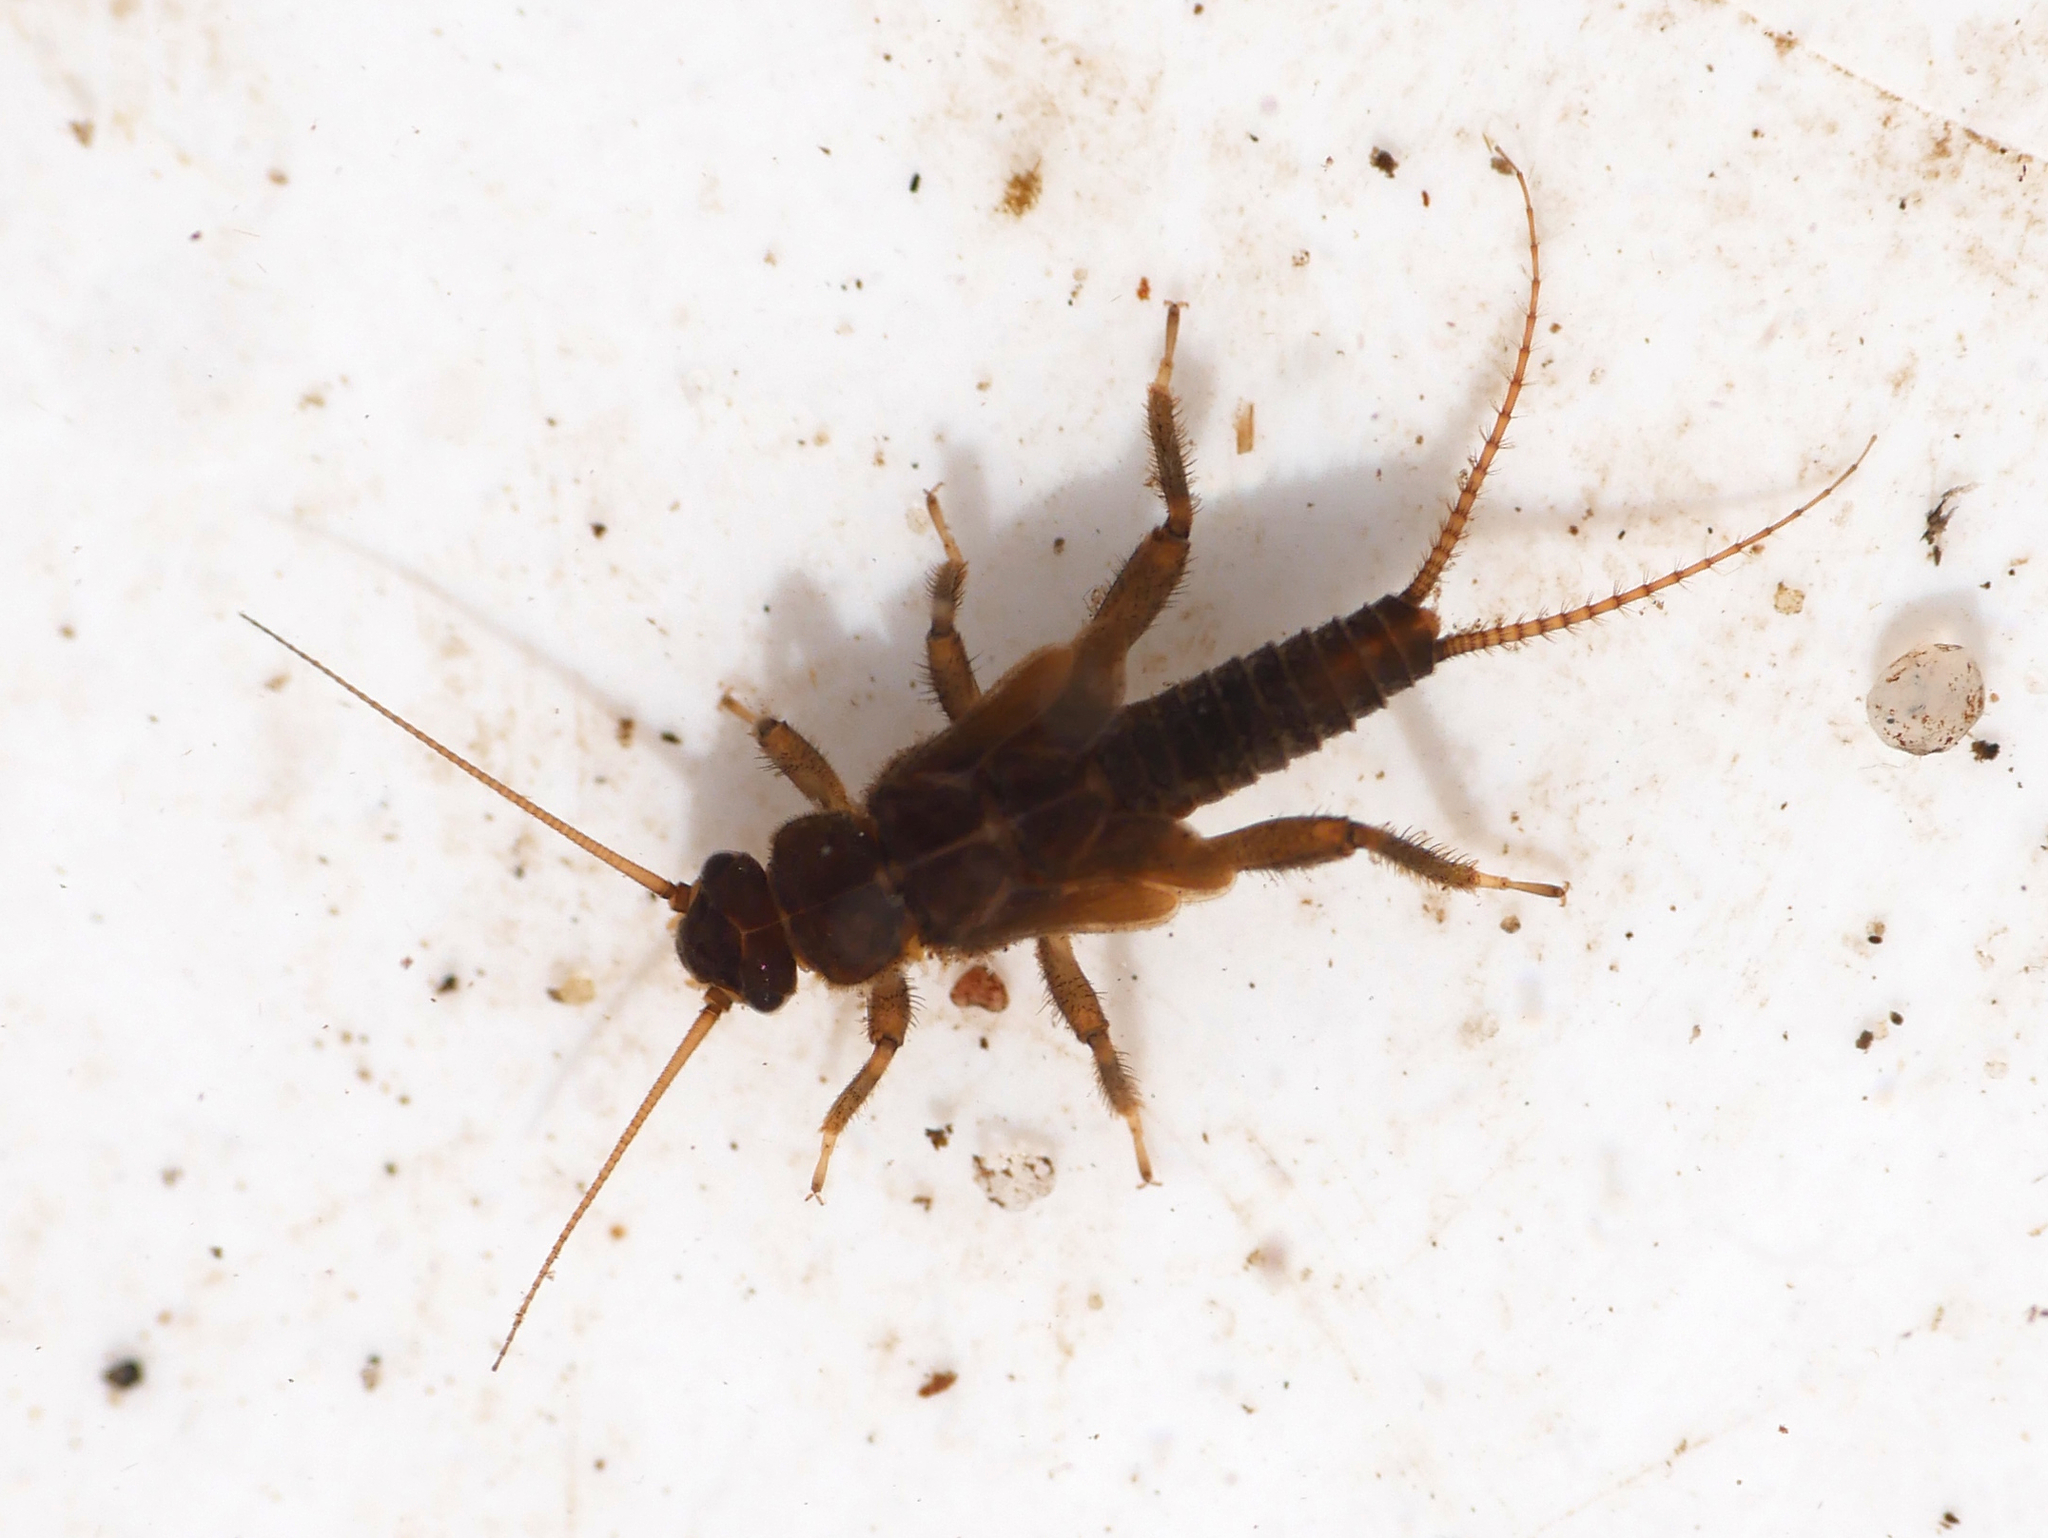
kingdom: Animalia
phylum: Arthropoda
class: Insecta
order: Plecoptera
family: Nemouridae
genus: Nemoura
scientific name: Nemoura flexuosa
